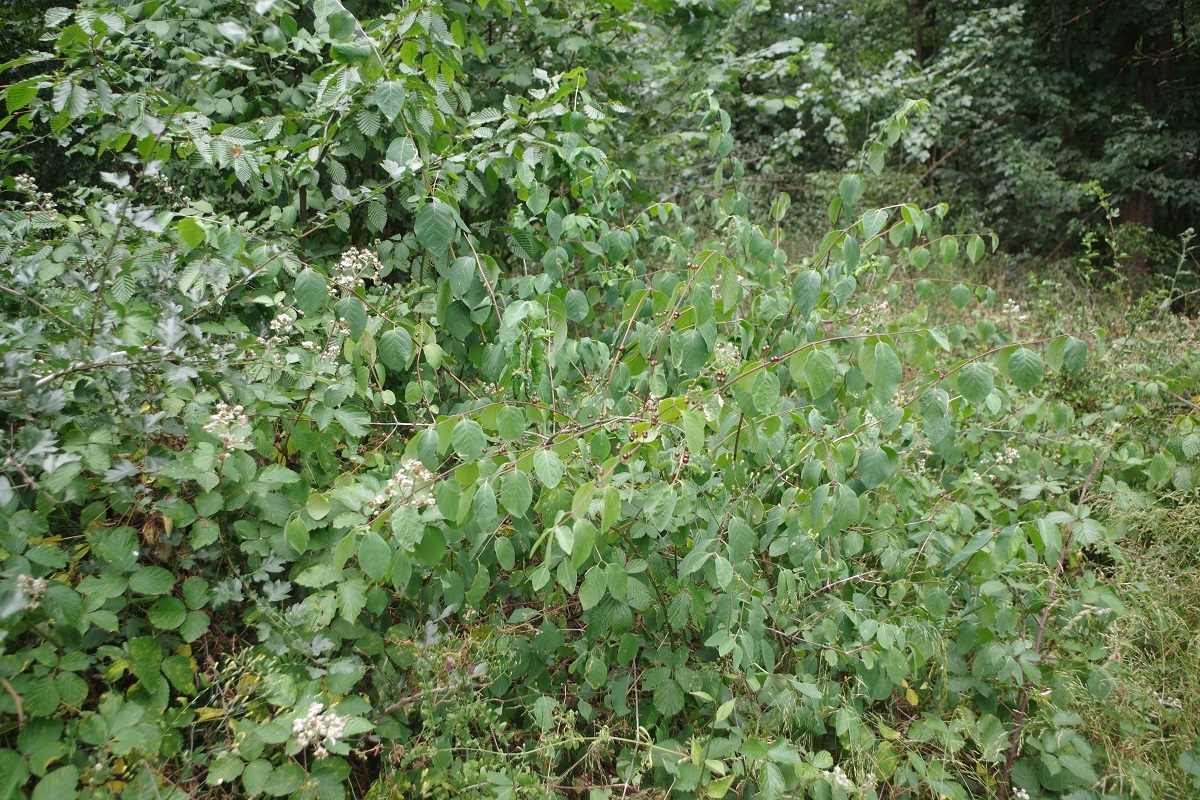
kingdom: Plantae
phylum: Tracheophyta
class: Magnoliopsida
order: Dipsacales
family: Caprifoliaceae
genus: Lonicera
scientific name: Lonicera xylosteum
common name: Fly honeysuckle
